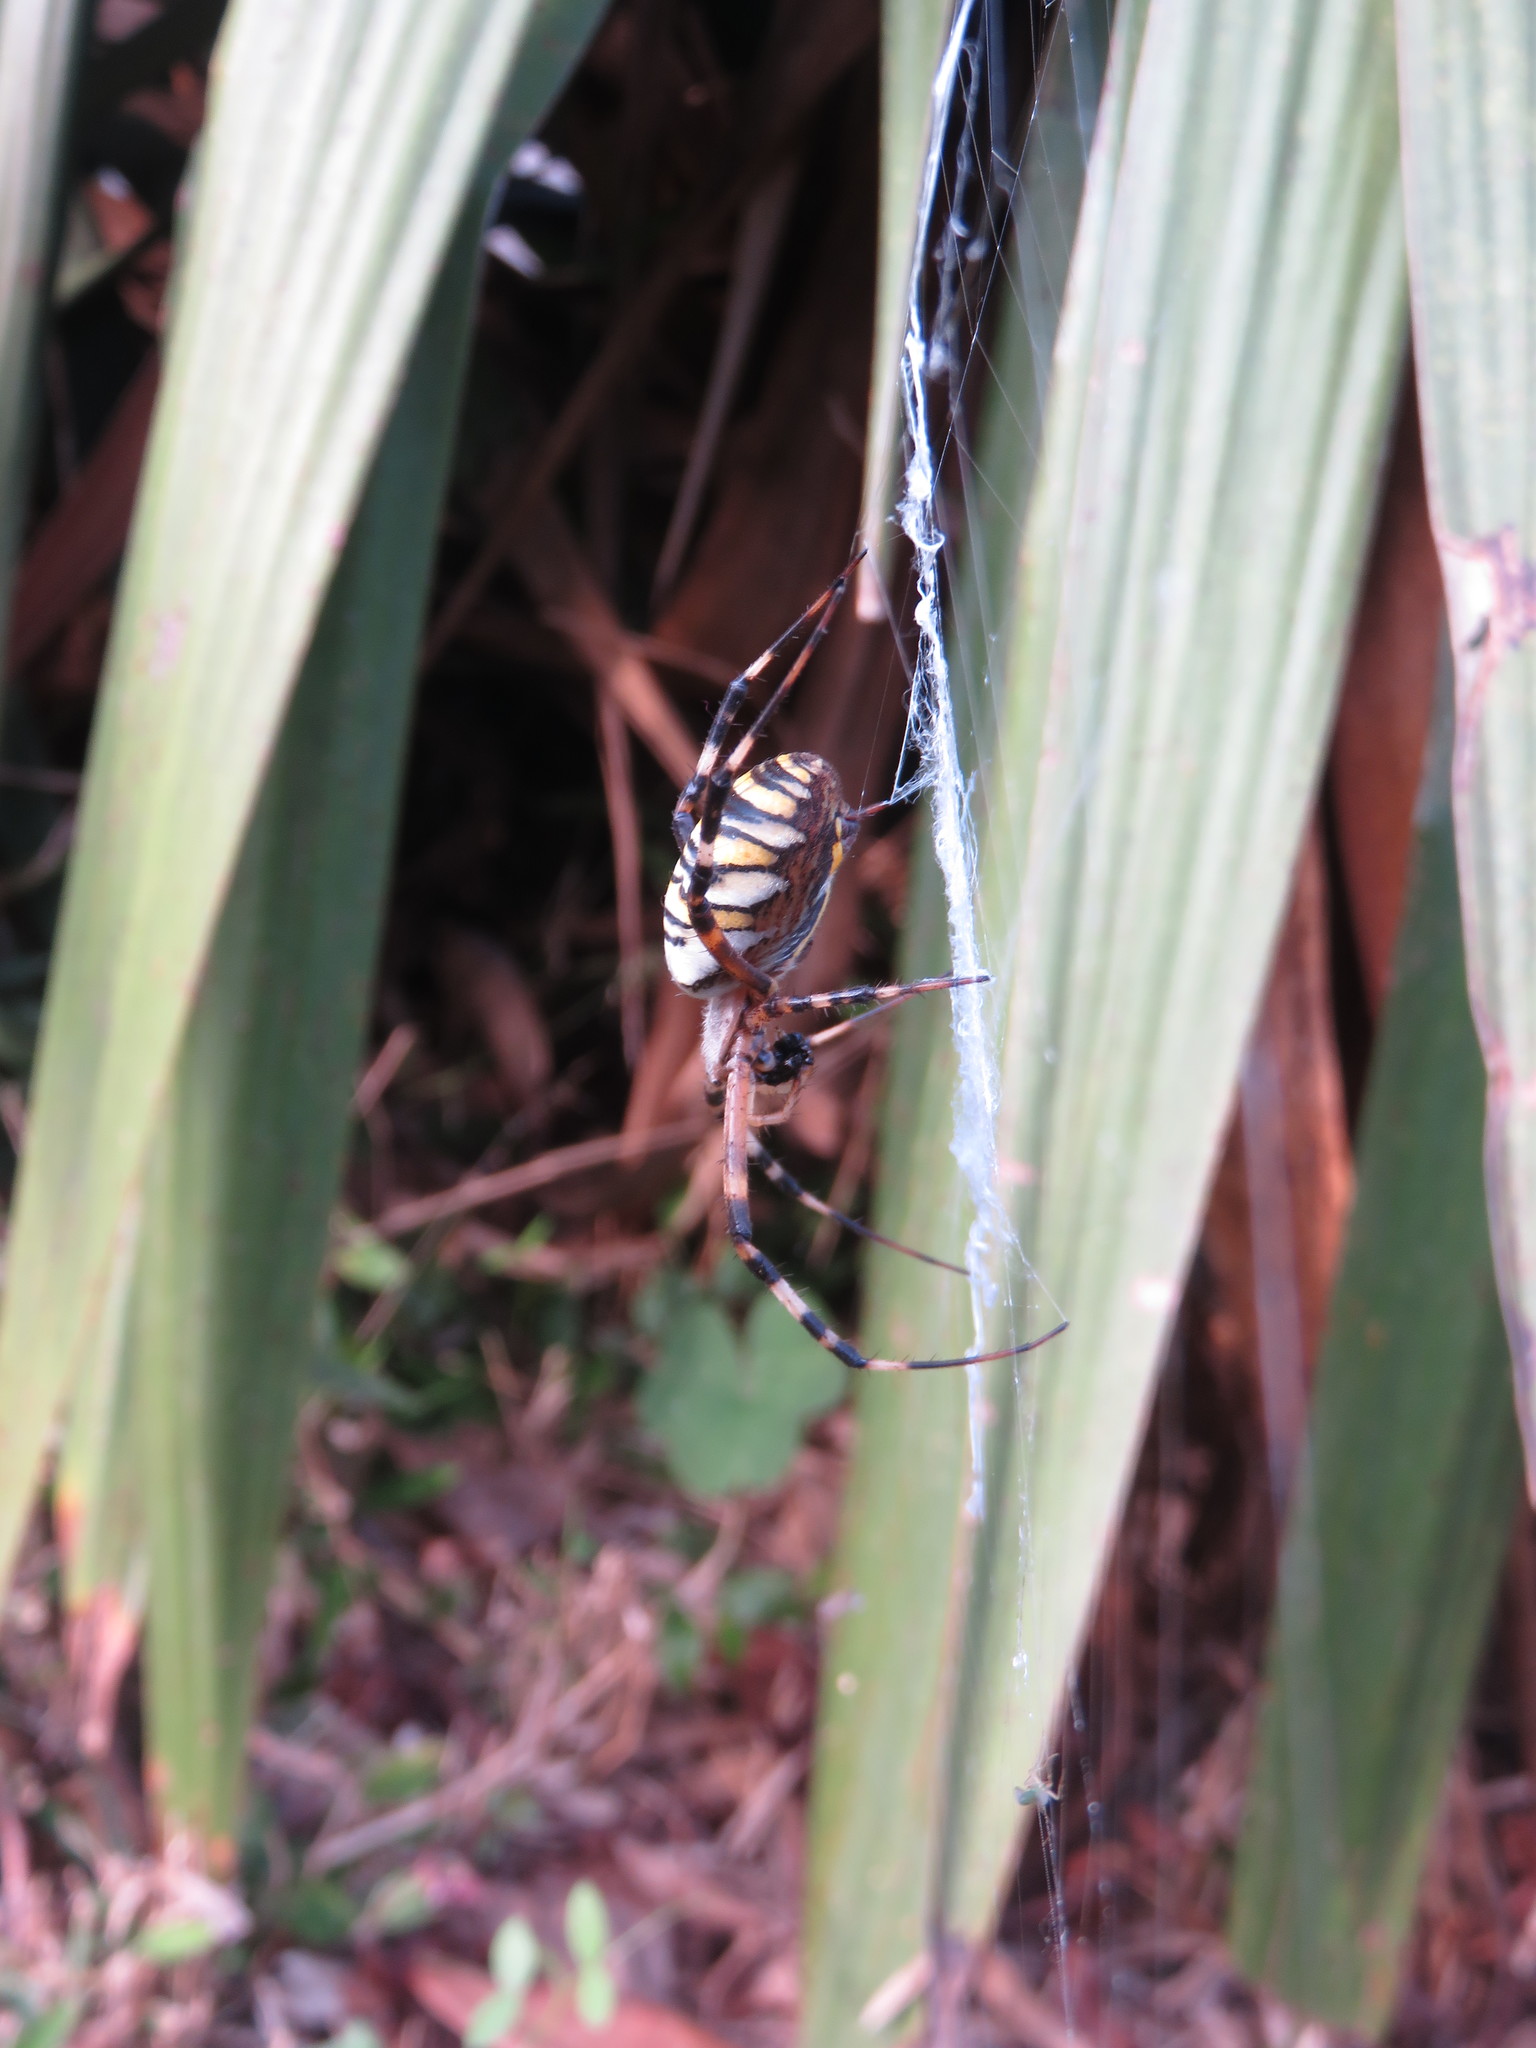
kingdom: Animalia
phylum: Arthropoda
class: Arachnida
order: Araneae
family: Araneidae
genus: Argiope
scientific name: Argiope bruennichi
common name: Wasp spider
